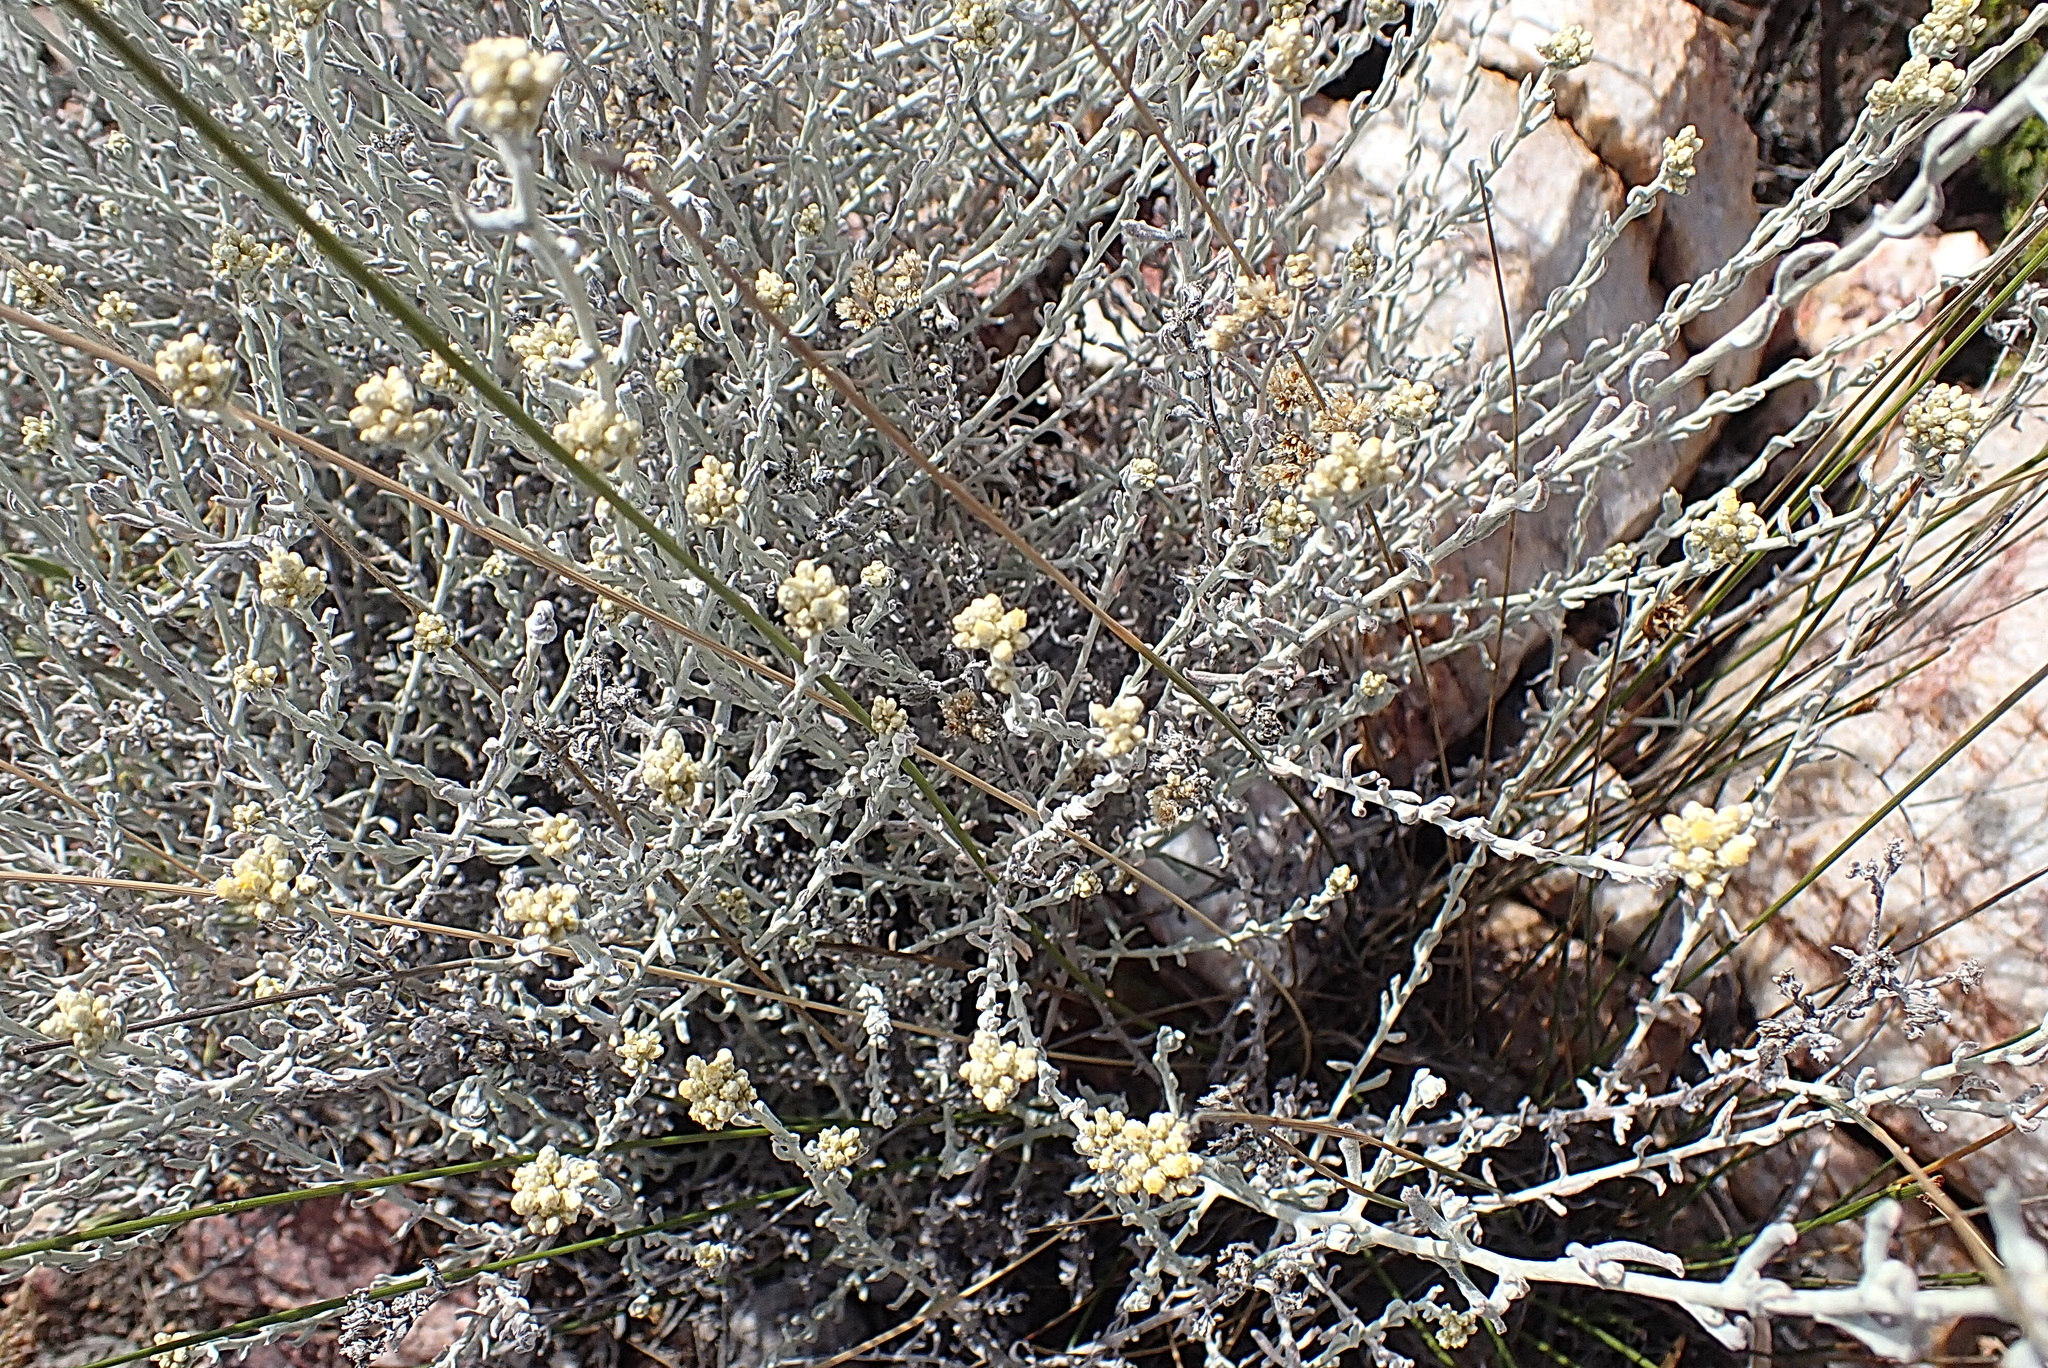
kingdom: Plantae
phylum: Tracheophyta
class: Magnoliopsida
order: Asterales
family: Asteraceae
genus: Helichrysum
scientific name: Helichrysum zeyheri
